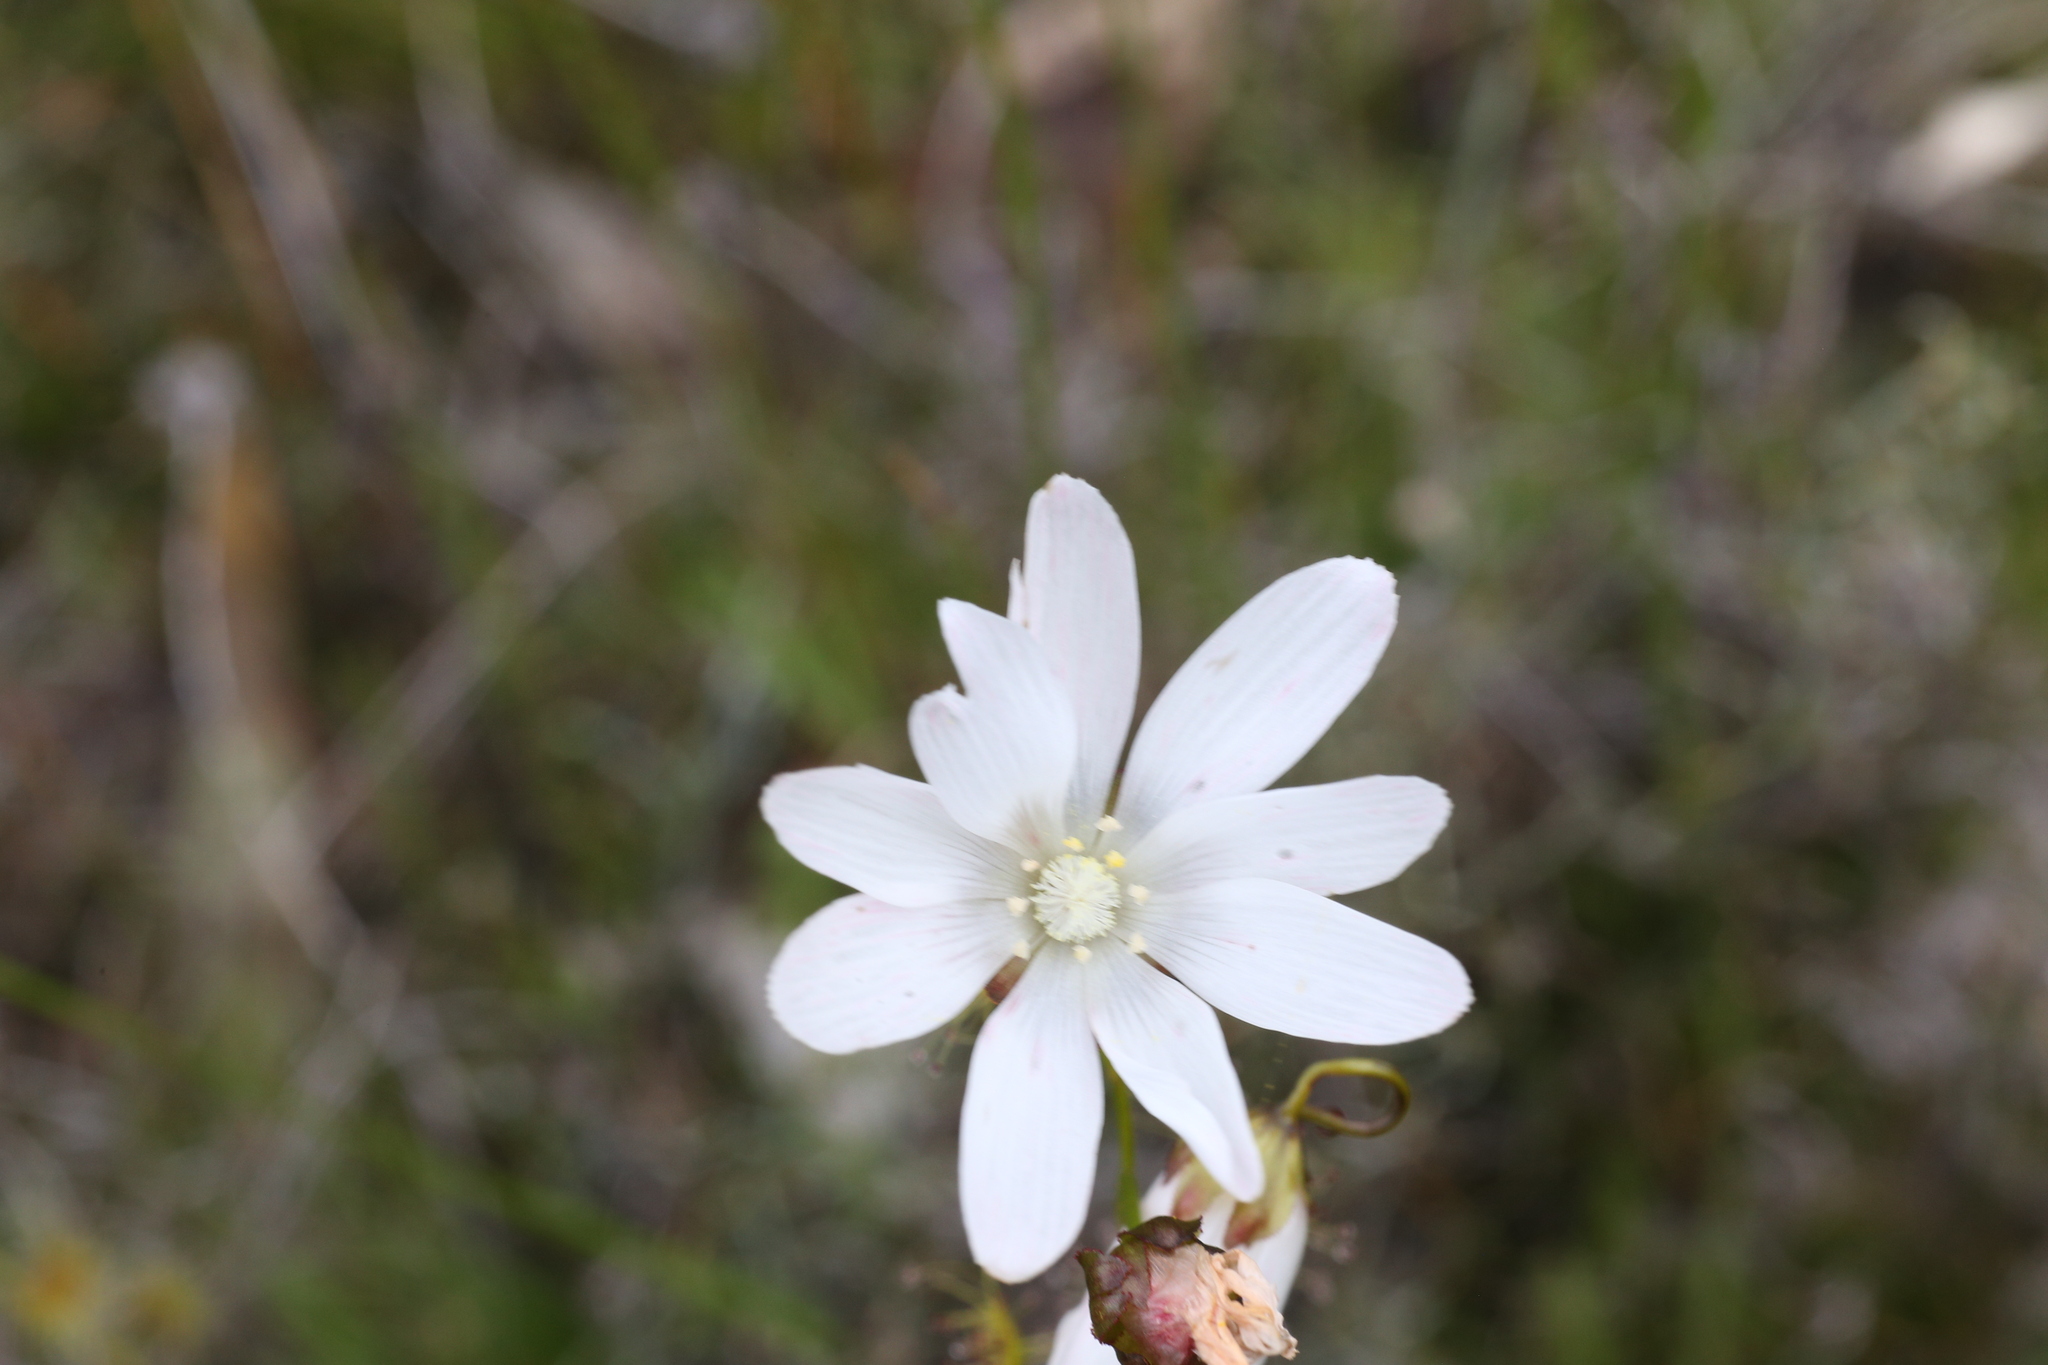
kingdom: Plantae
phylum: Tracheophyta
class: Magnoliopsida
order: Caryophyllales
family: Droseraceae
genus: Drosera
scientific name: Drosera heterophylla
